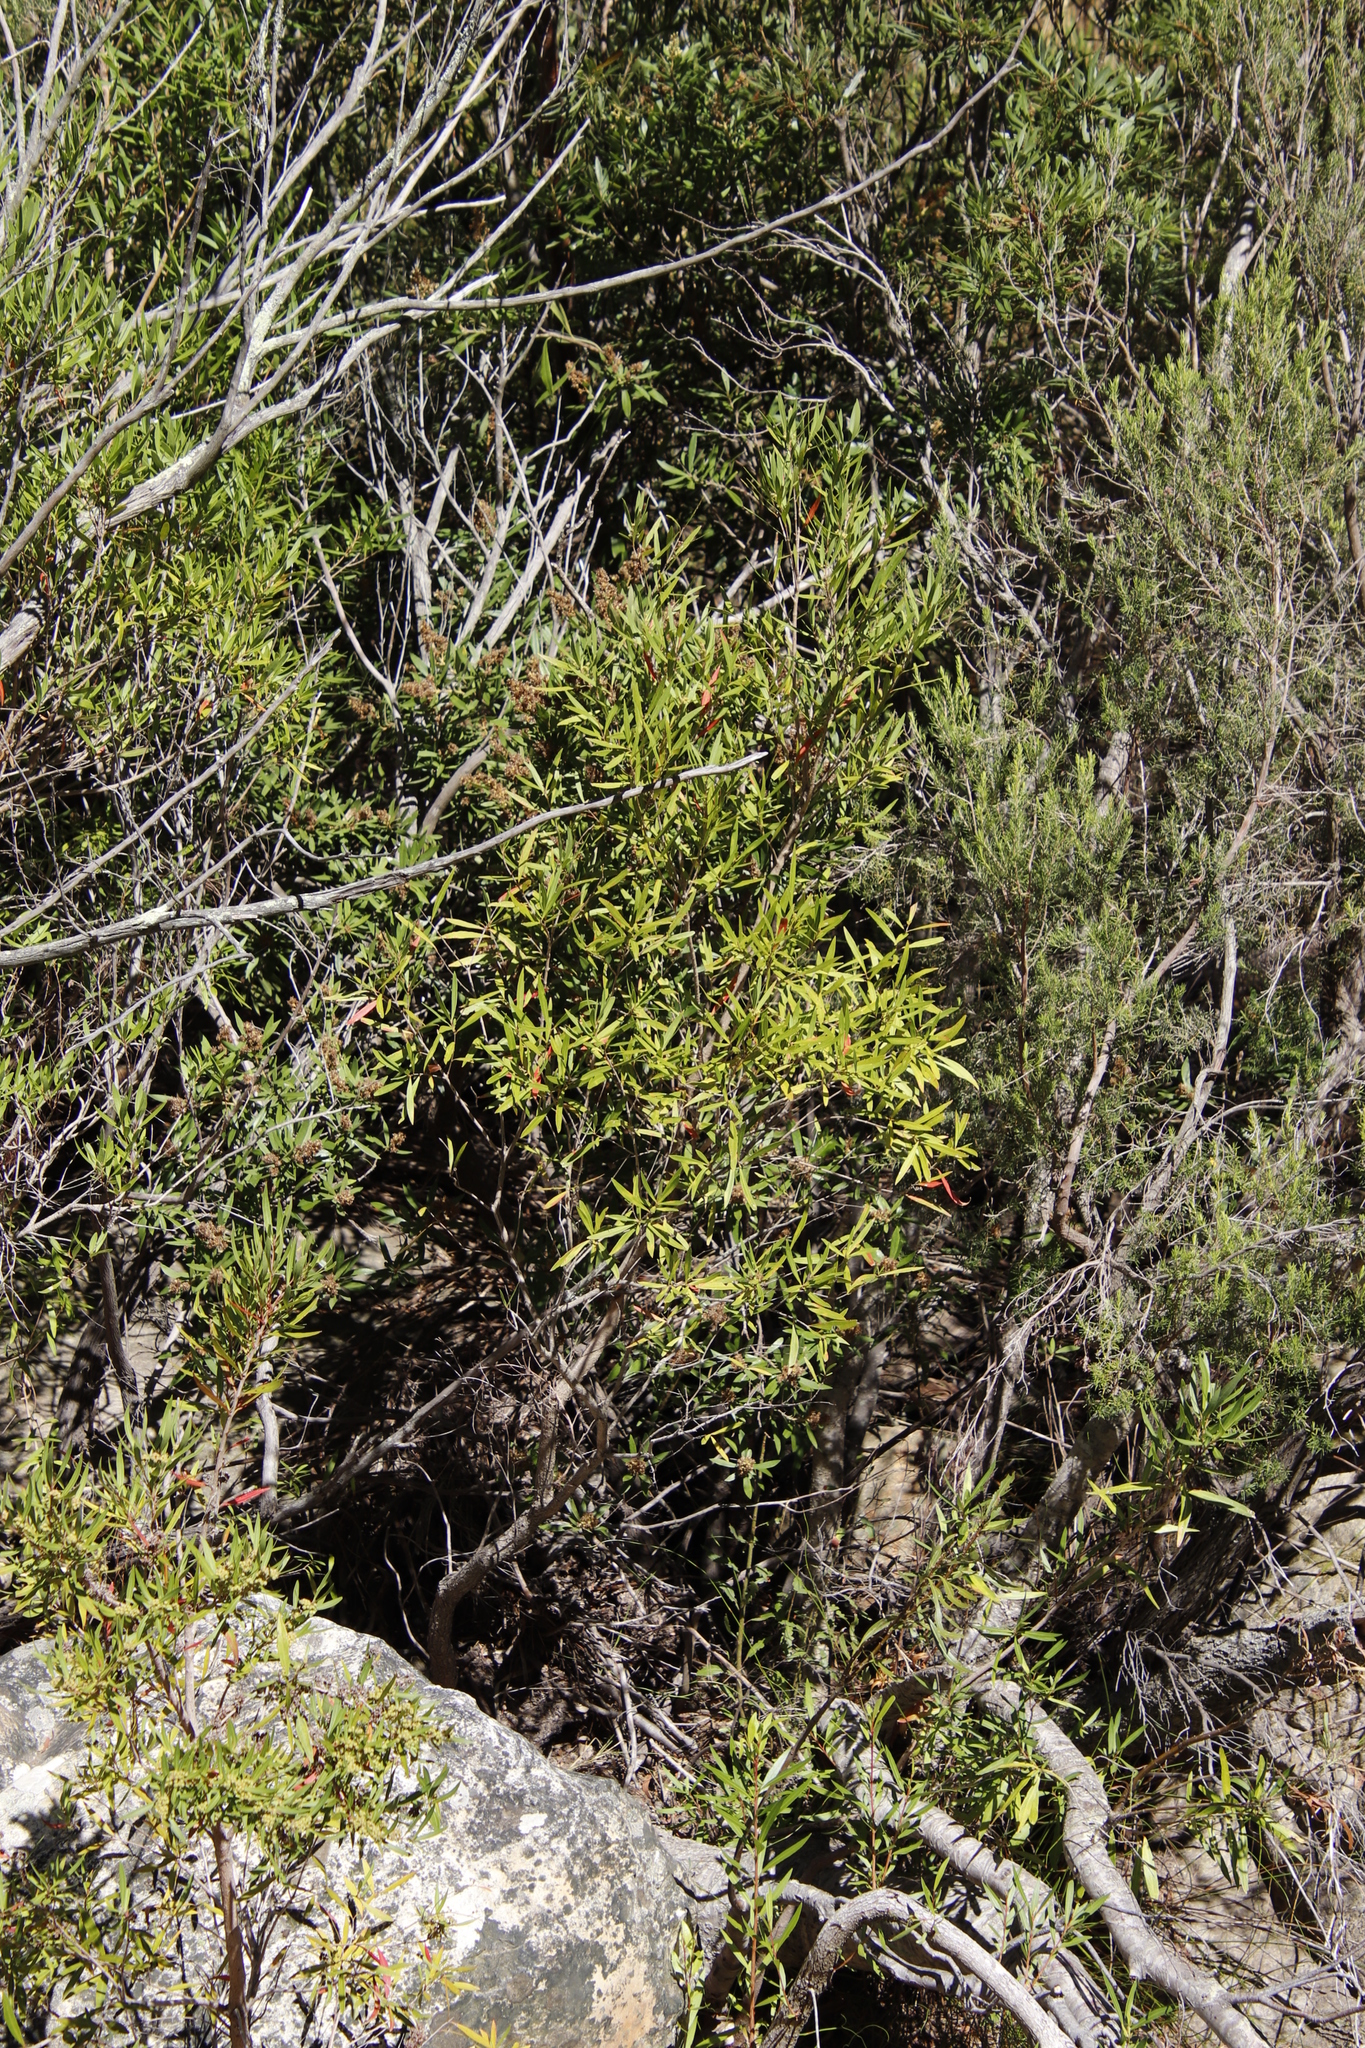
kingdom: Plantae
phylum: Tracheophyta
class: Magnoliopsida
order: Myrtales
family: Myrtaceae
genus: Callistemon
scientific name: Callistemon lanceolatus
